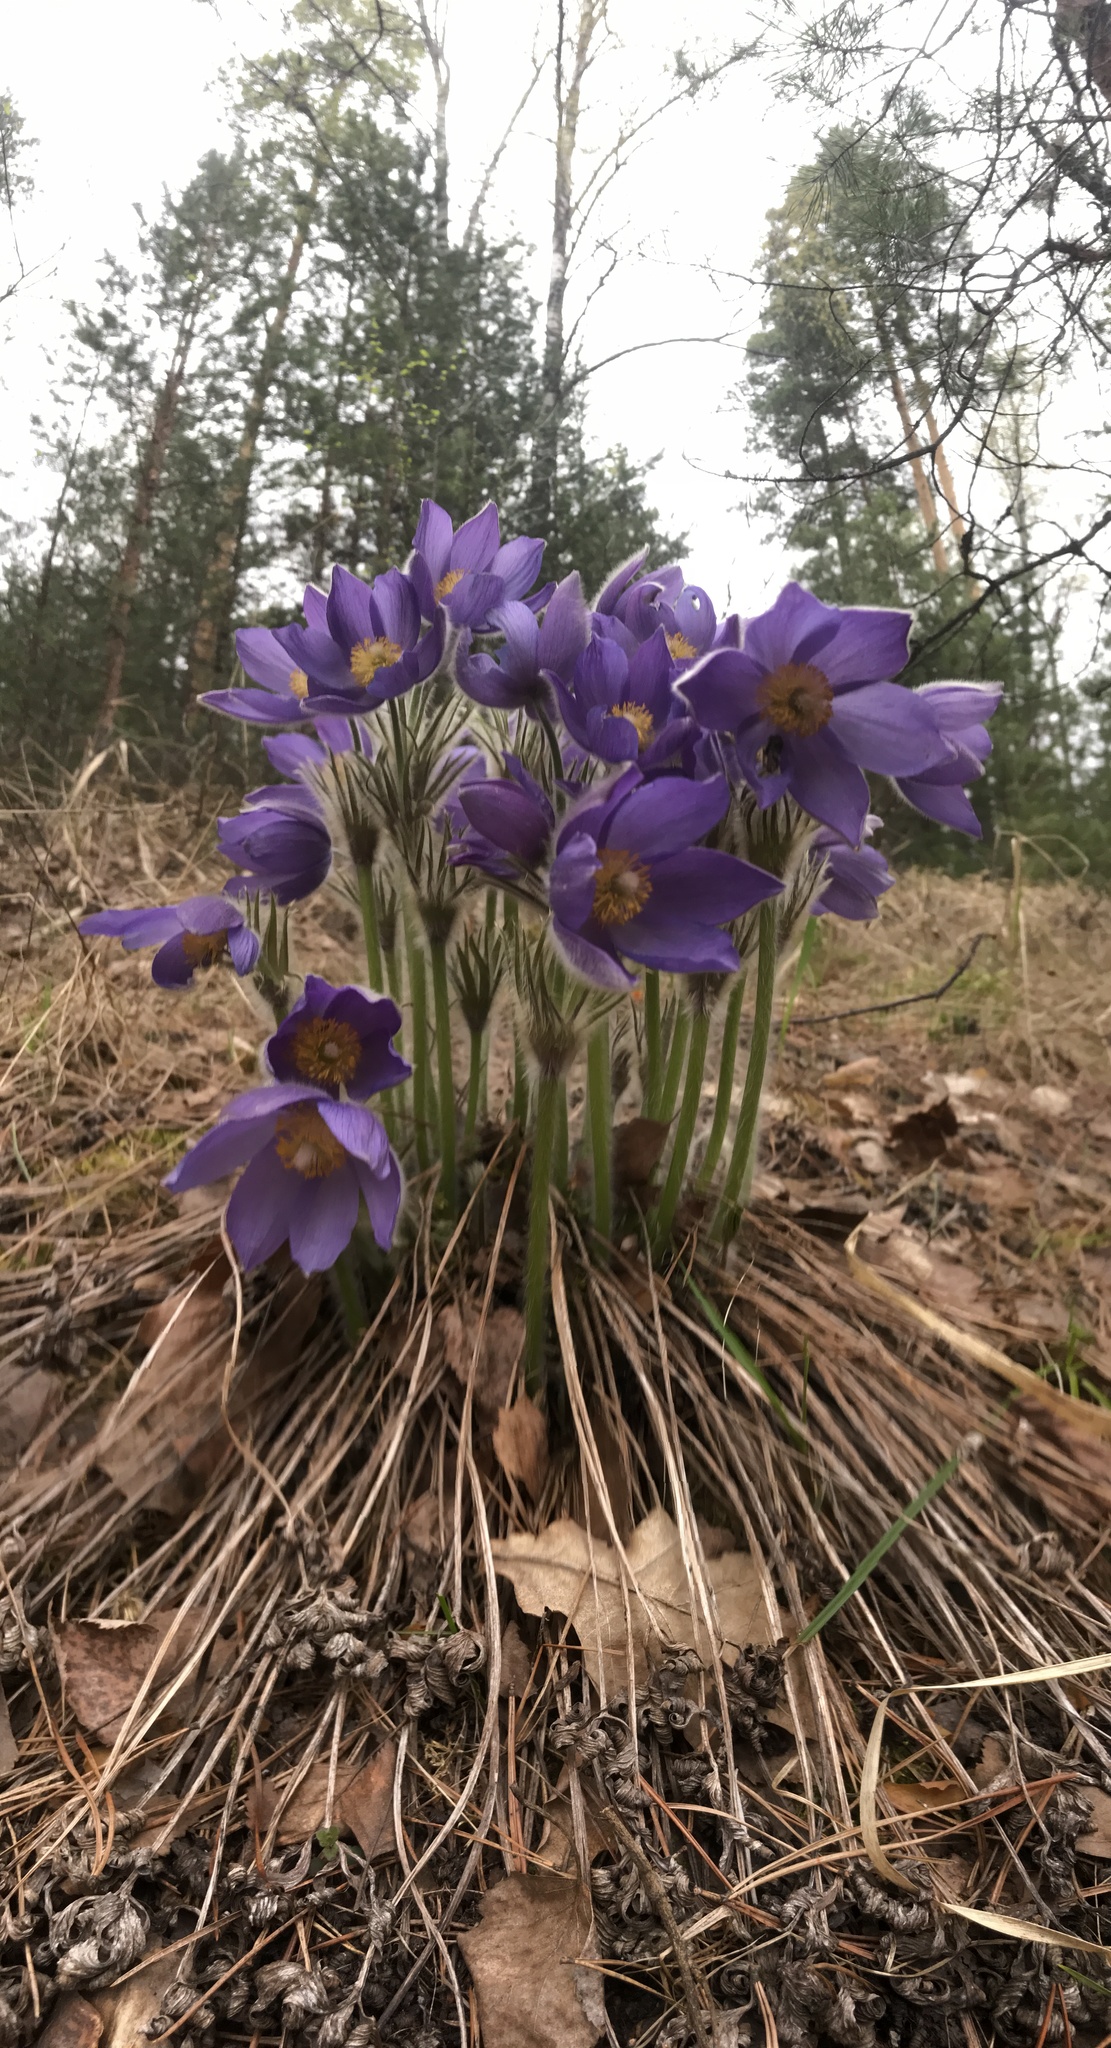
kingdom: Plantae
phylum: Tracheophyta
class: Magnoliopsida
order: Ranunculales
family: Ranunculaceae
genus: Pulsatilla
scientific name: Pulsatilla patens
